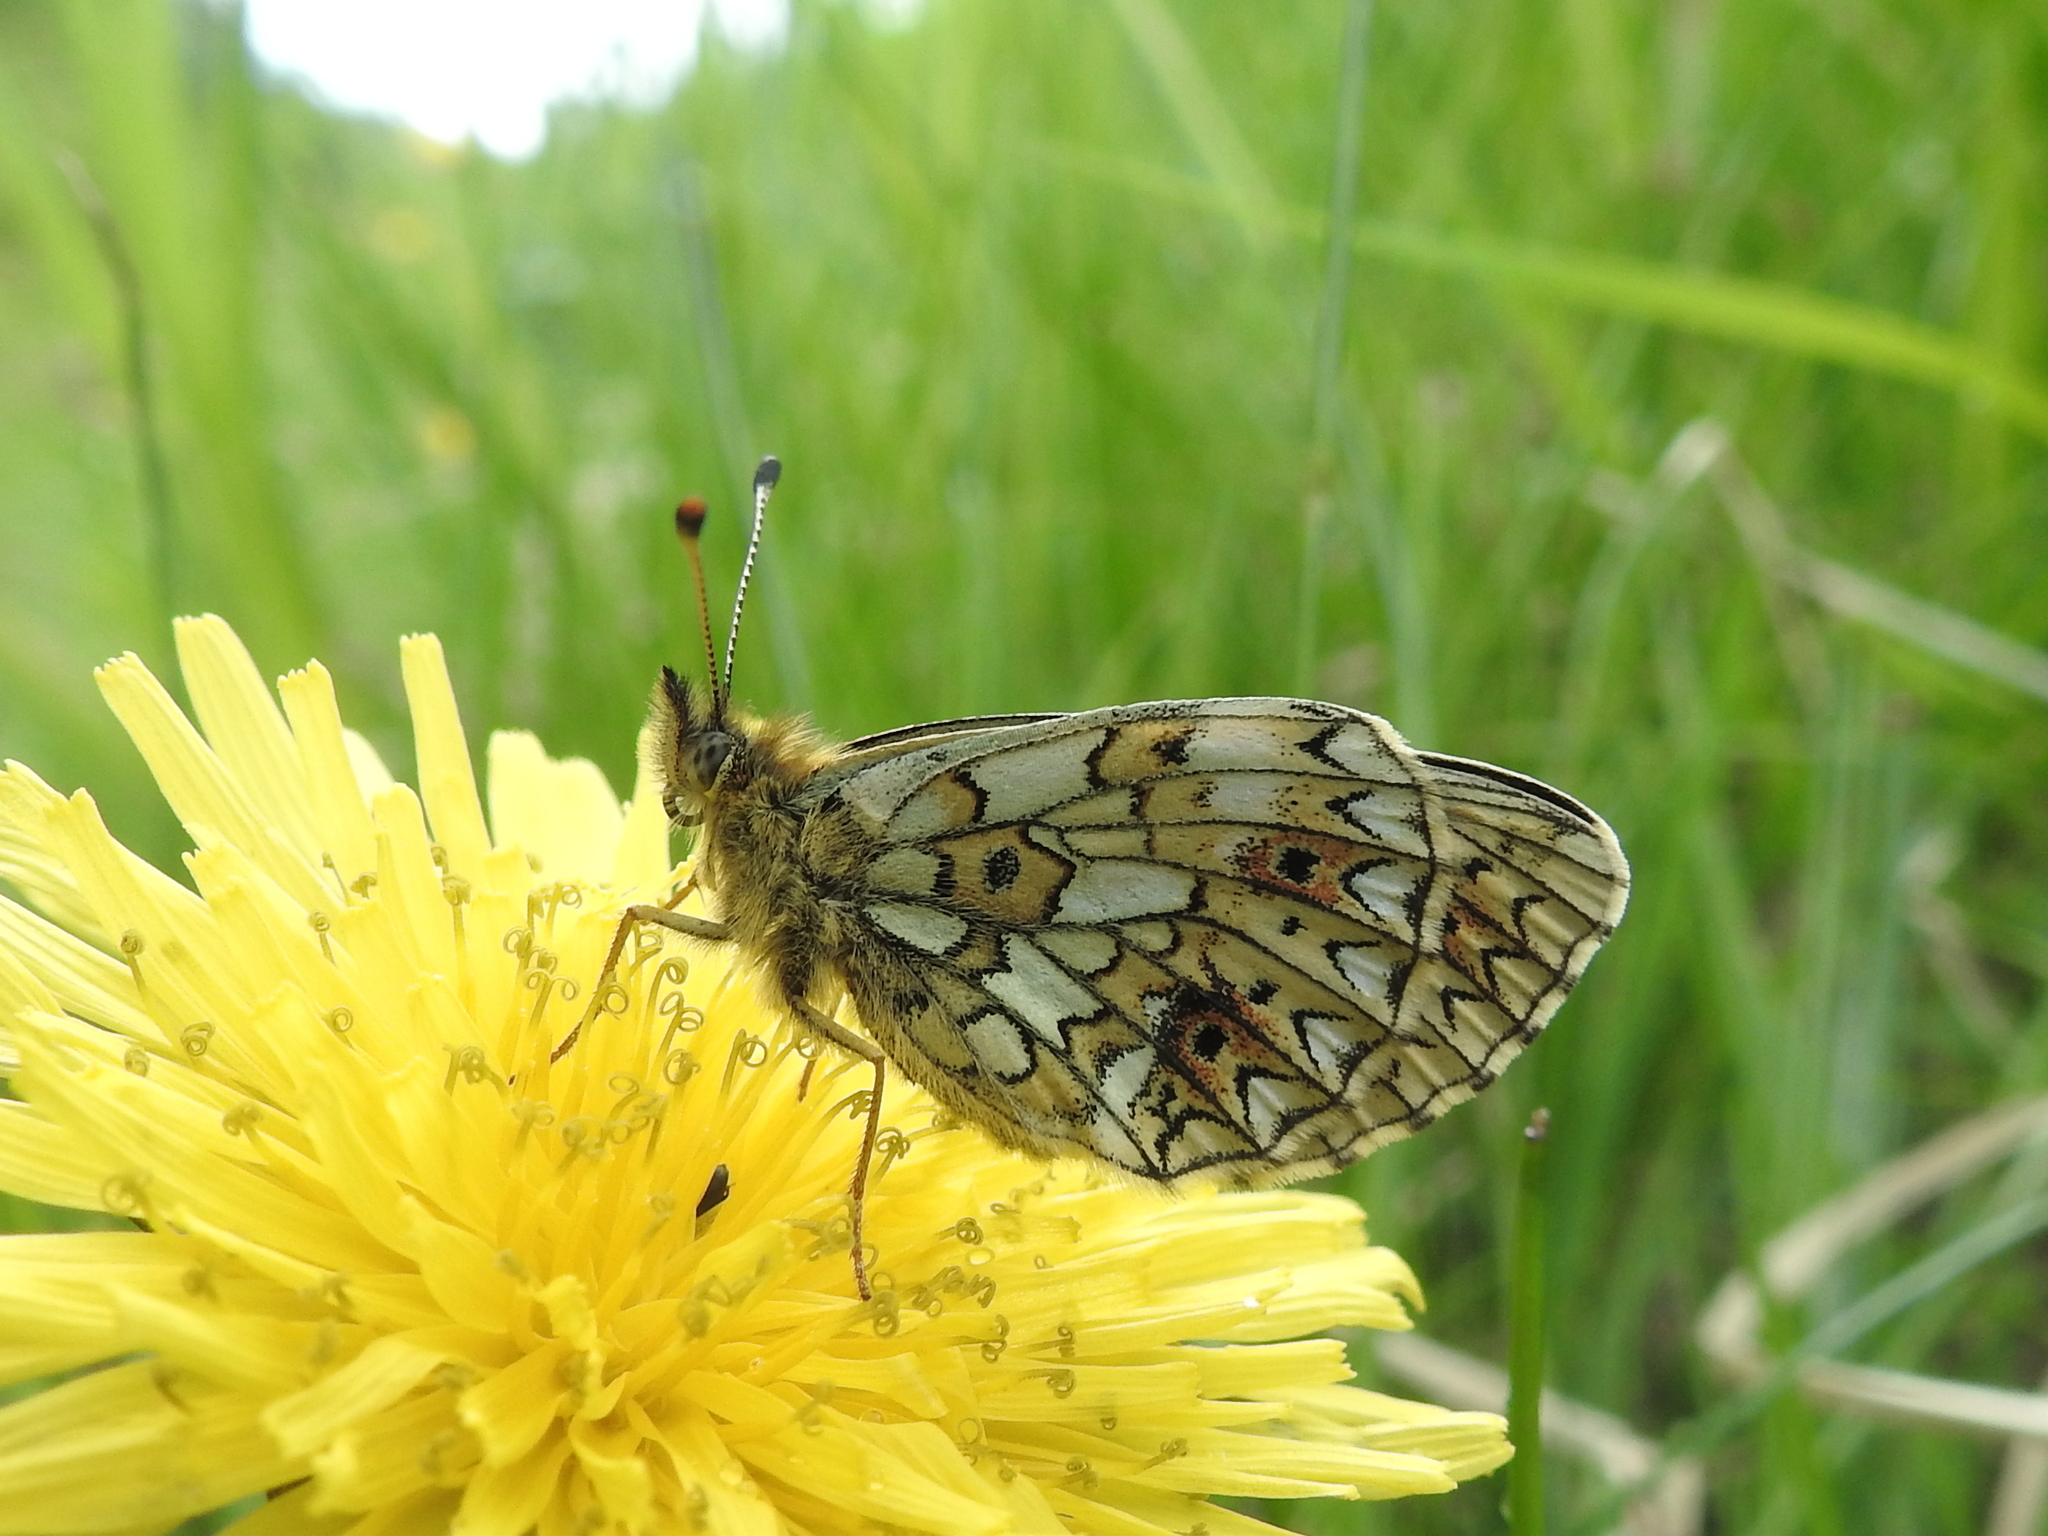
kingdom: Animalia
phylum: Arthropoda
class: Insecta
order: Lepidoptera
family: Nymphalidae
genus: Boloria
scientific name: Boloria selene
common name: Small pearl-bordered fritillary
